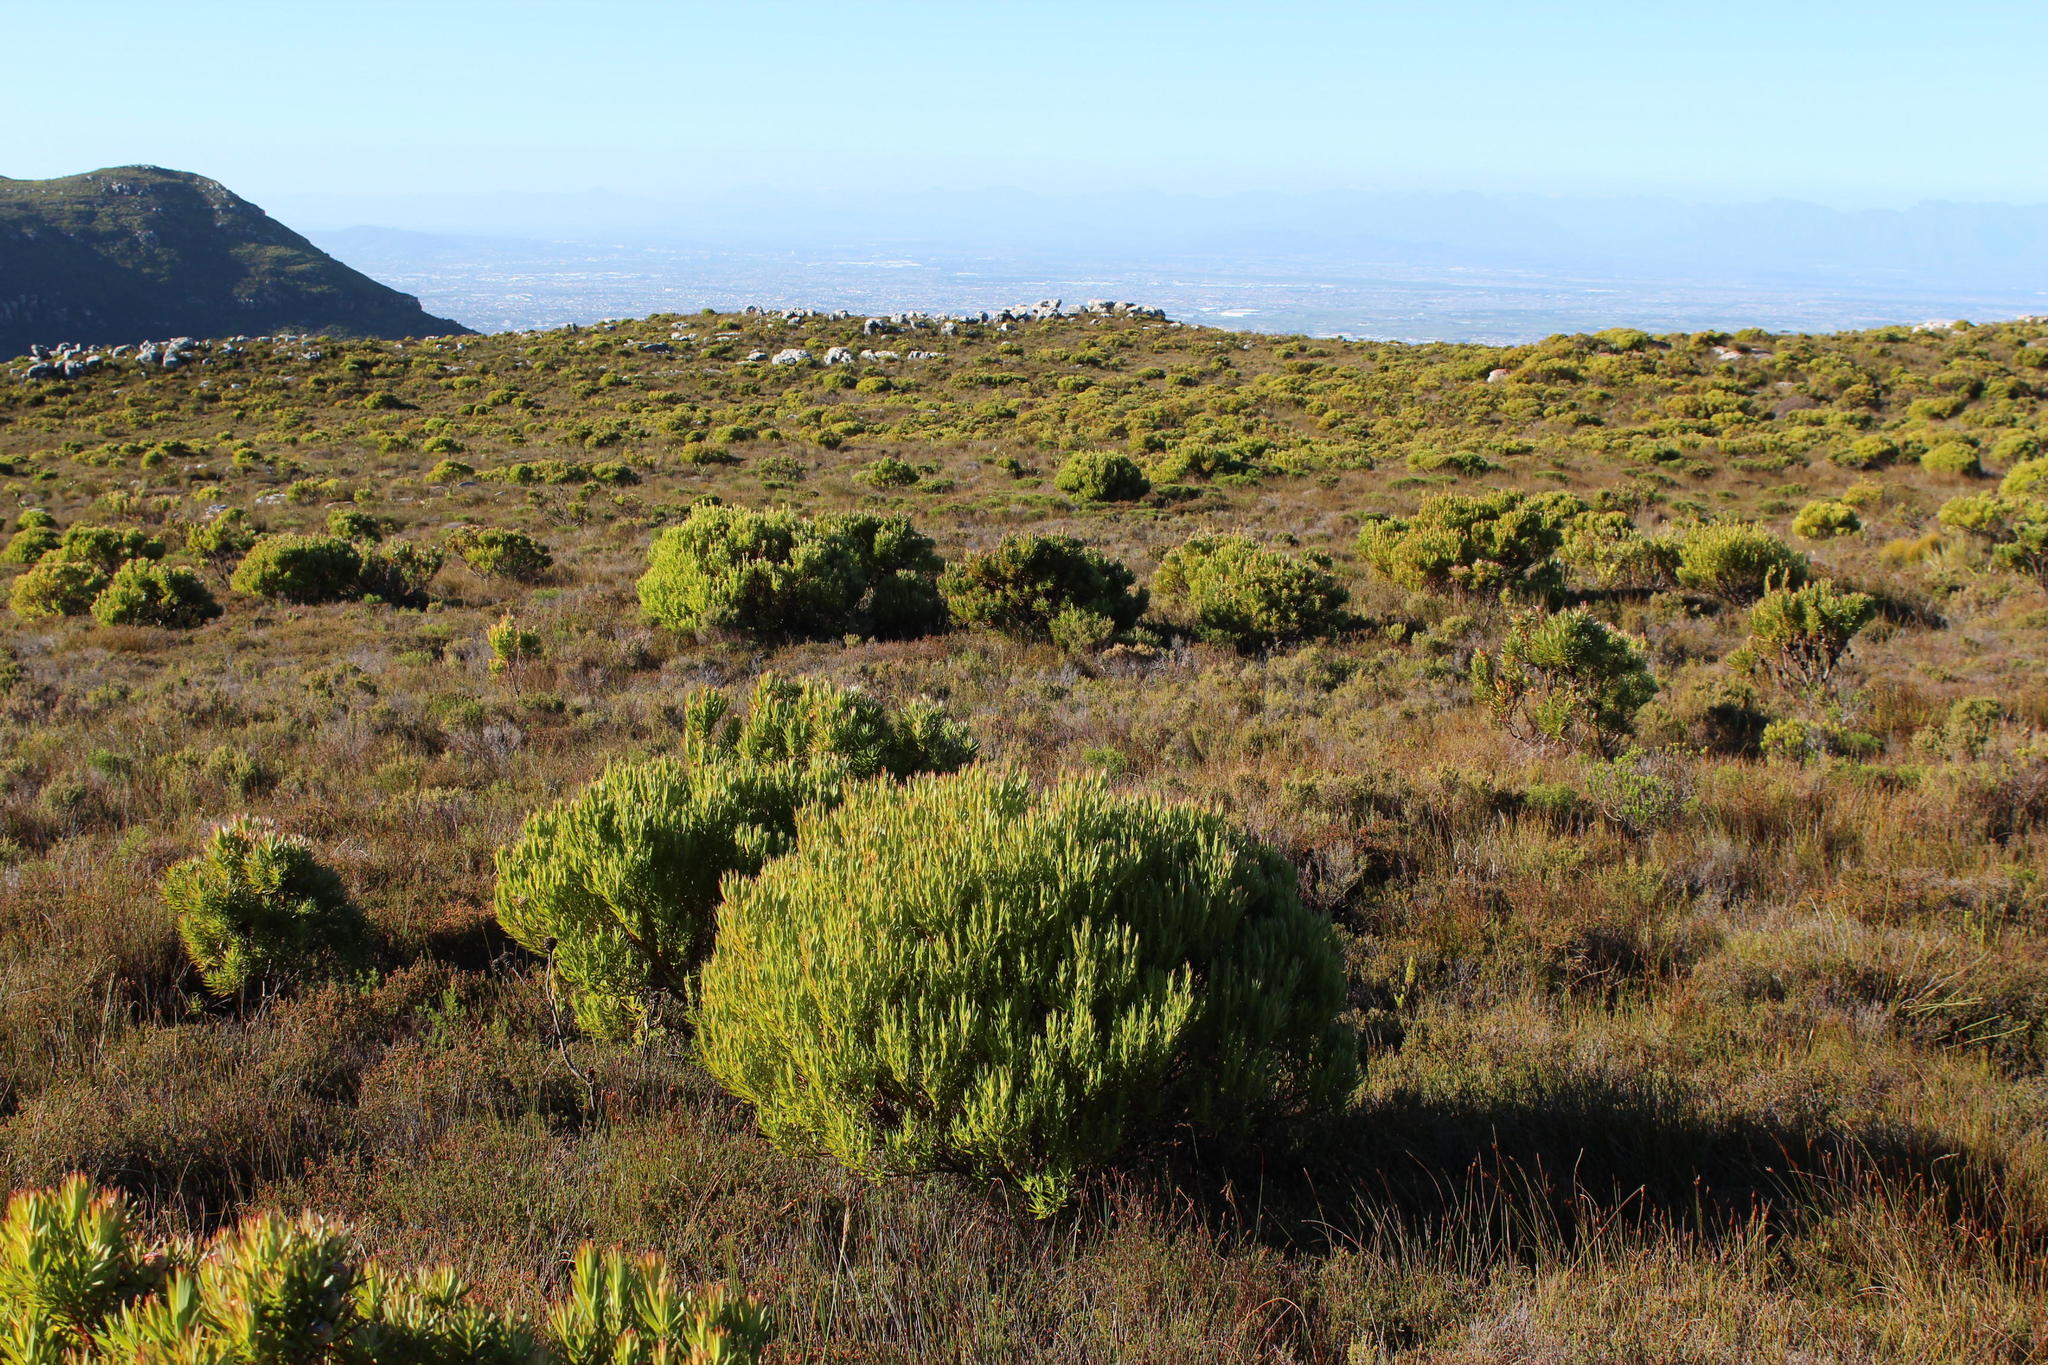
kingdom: Plantae
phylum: Tracheophyta
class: Magnoliopsida
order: Proteales
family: Proteaceae
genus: Leucadendron
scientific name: Leucadendron xanthoconus
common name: Sickle-leaf conebush
